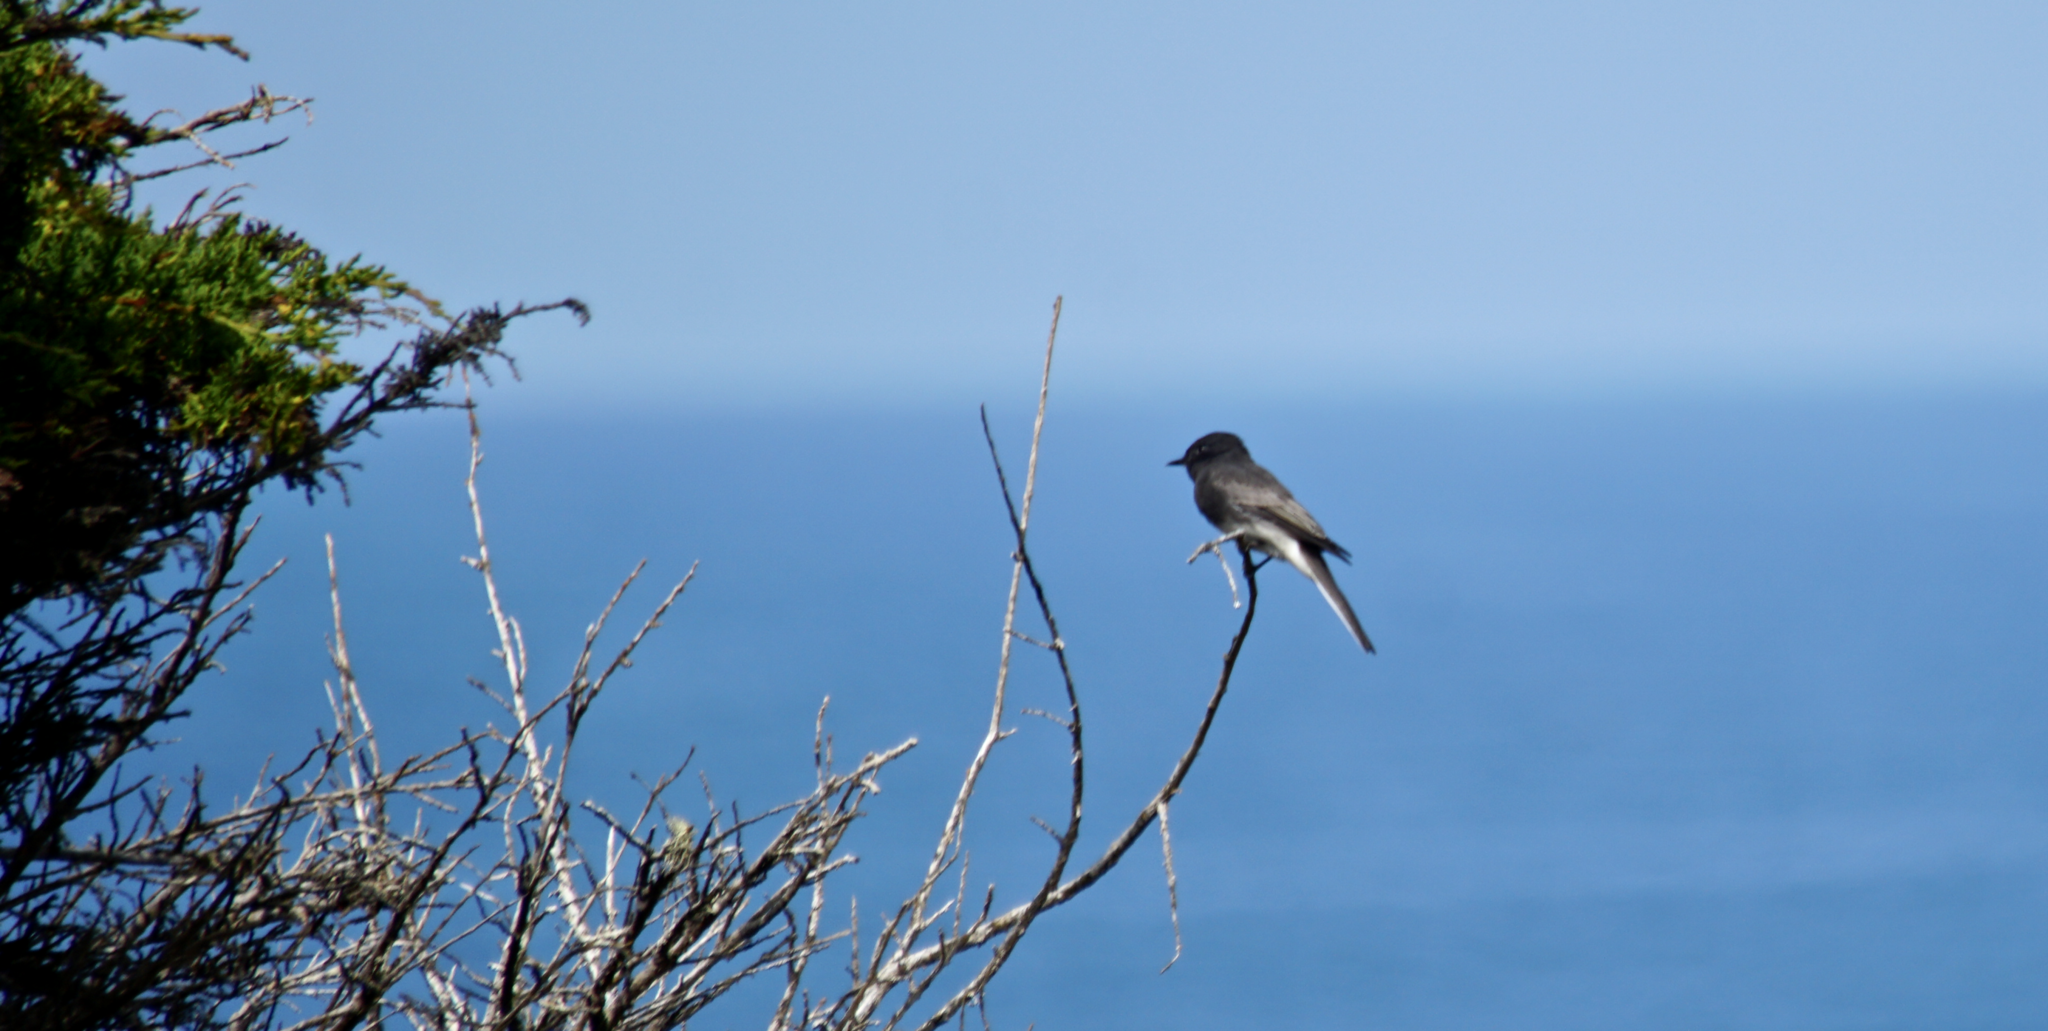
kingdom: Animalia
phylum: Chordata
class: Aves
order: Passeriformes
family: Tyrannidae
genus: Sayornis
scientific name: Sayornis nigricans
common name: Black phoebe
